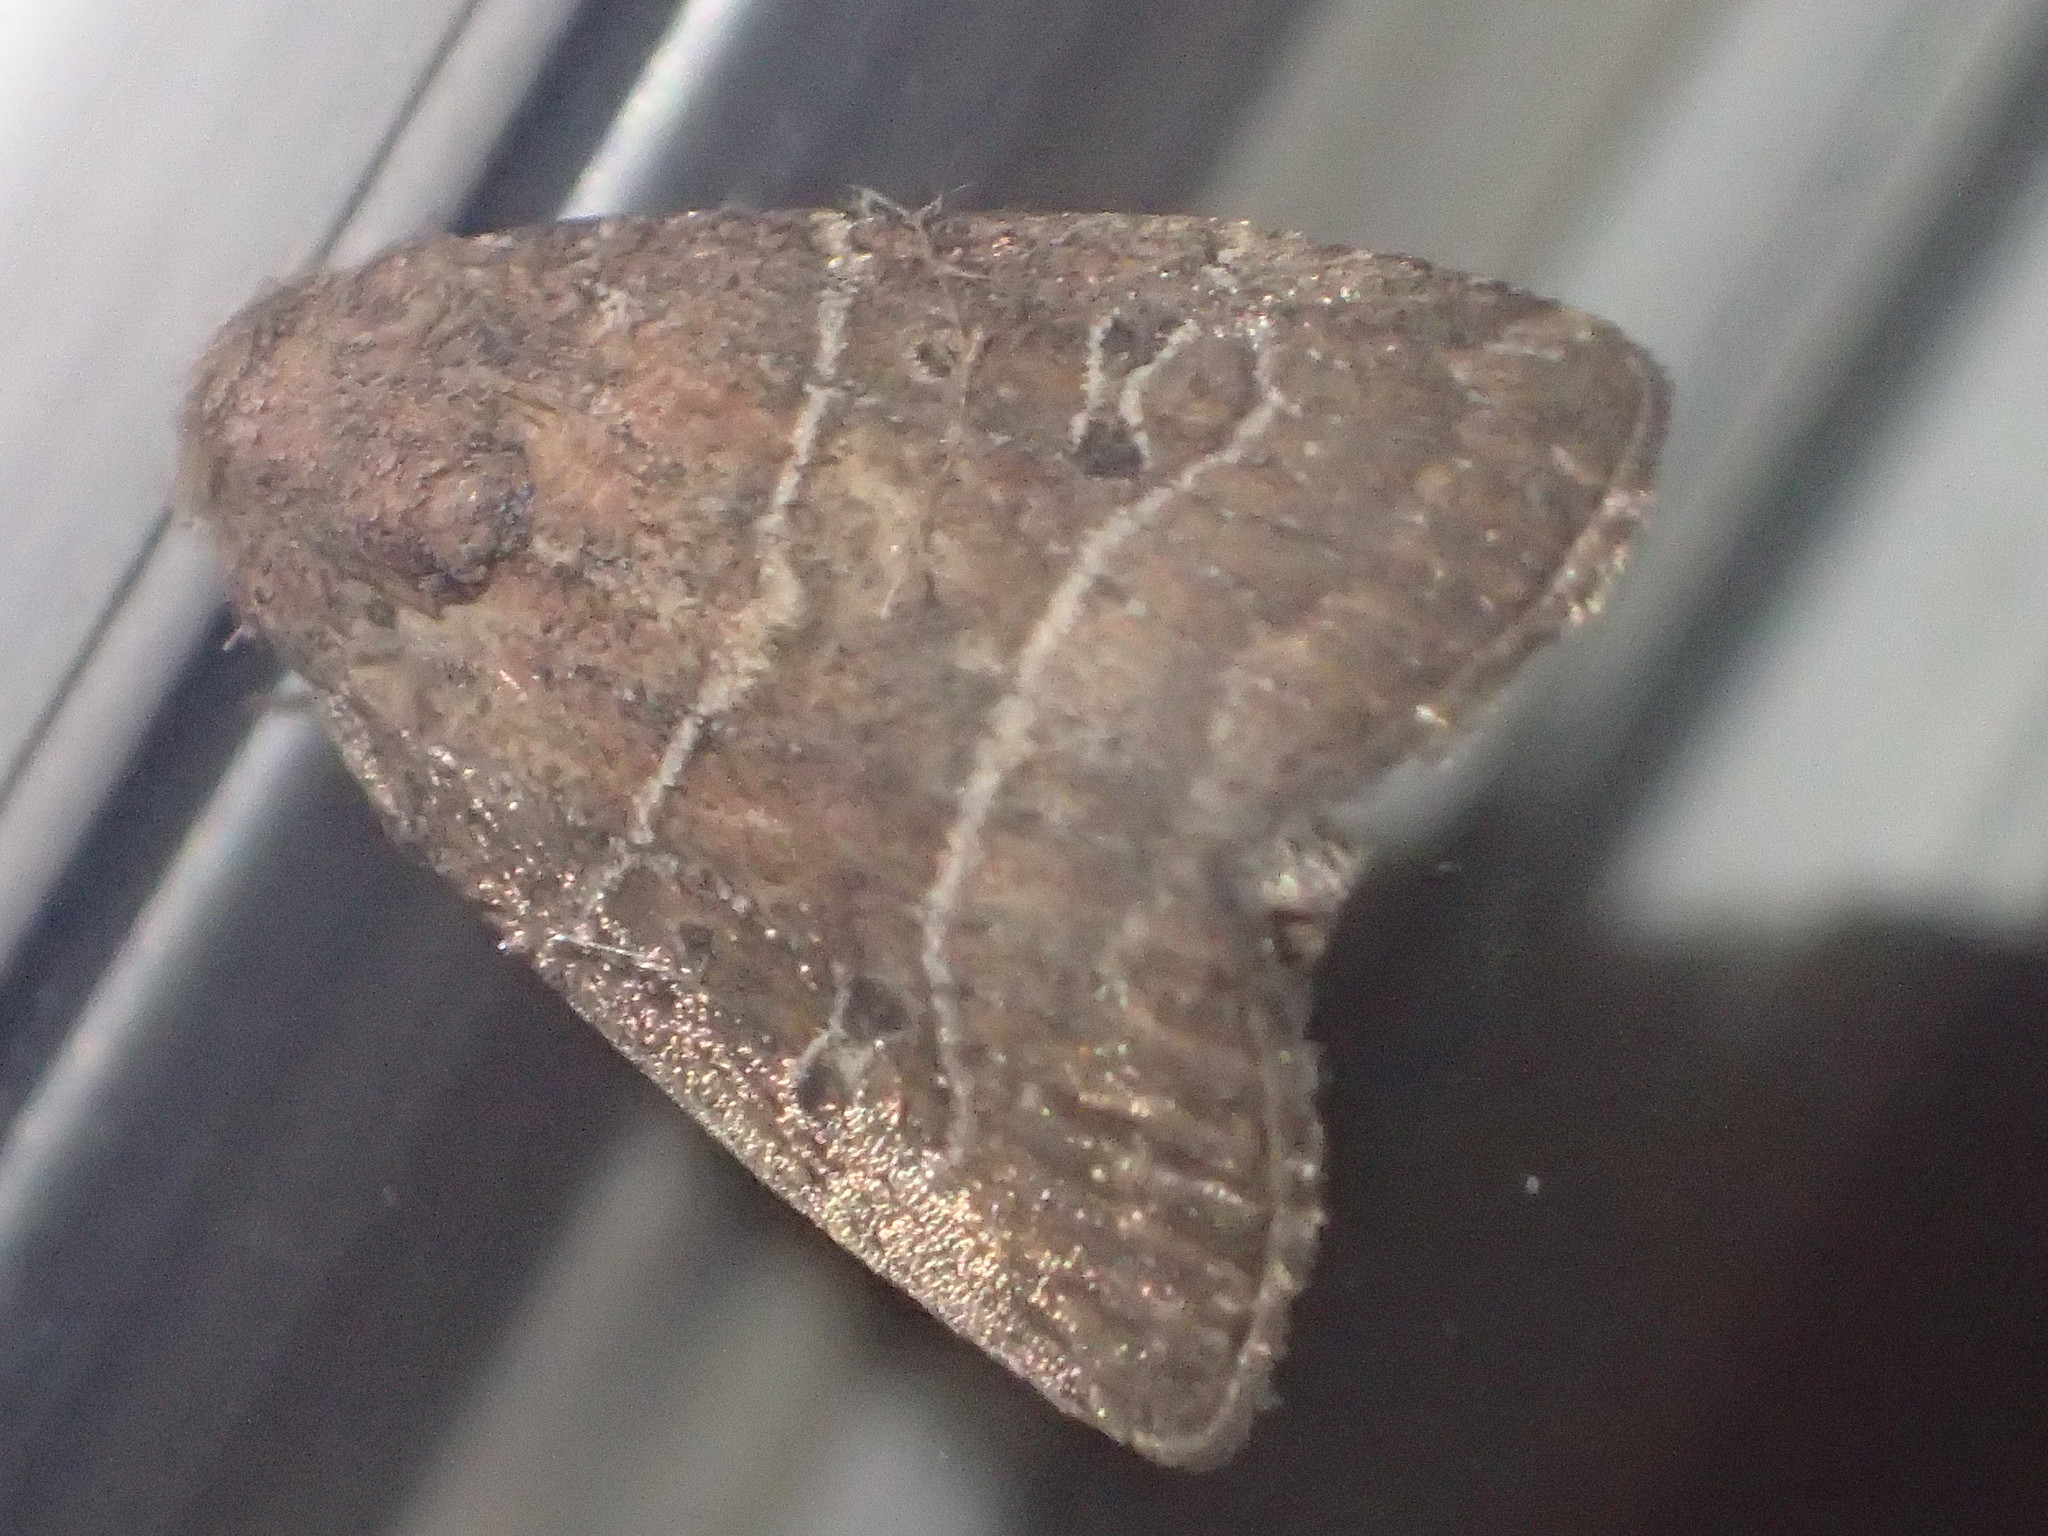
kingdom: Animalia
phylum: Arthropoda
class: Insecta
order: Lepidoptera
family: Noctuidae
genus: Elaphria
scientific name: Elaphria grata
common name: Grateful midget moth
